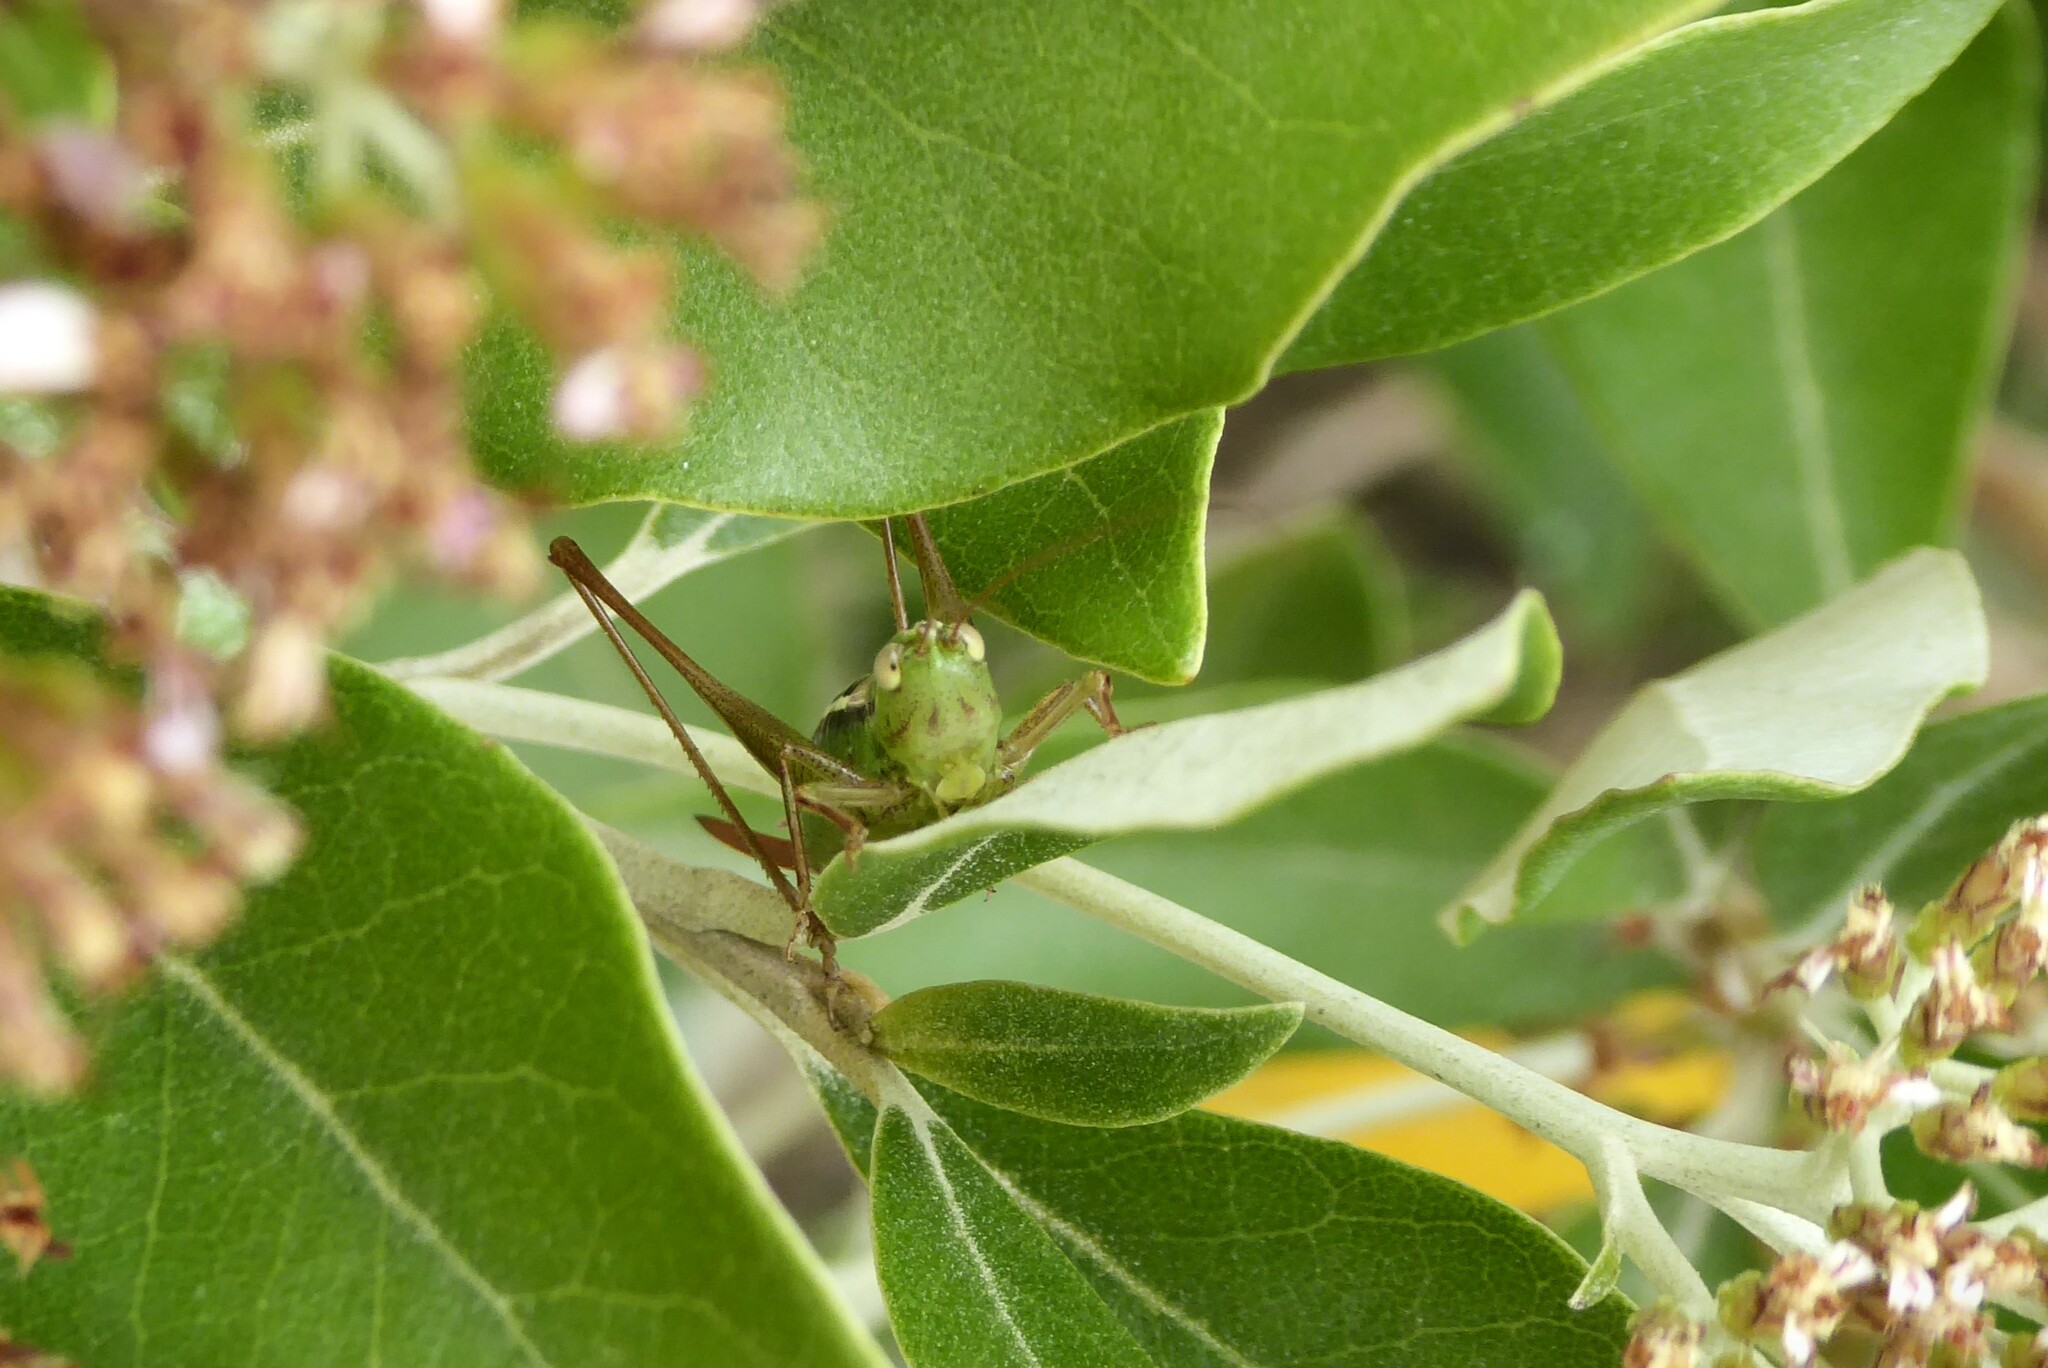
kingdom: Animalia
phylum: Arthropoda
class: Insecta
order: Orthoptera
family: Tettigoniidae
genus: Conocephalus
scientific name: Conocephalus bilineatus
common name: Small meadow katydid
